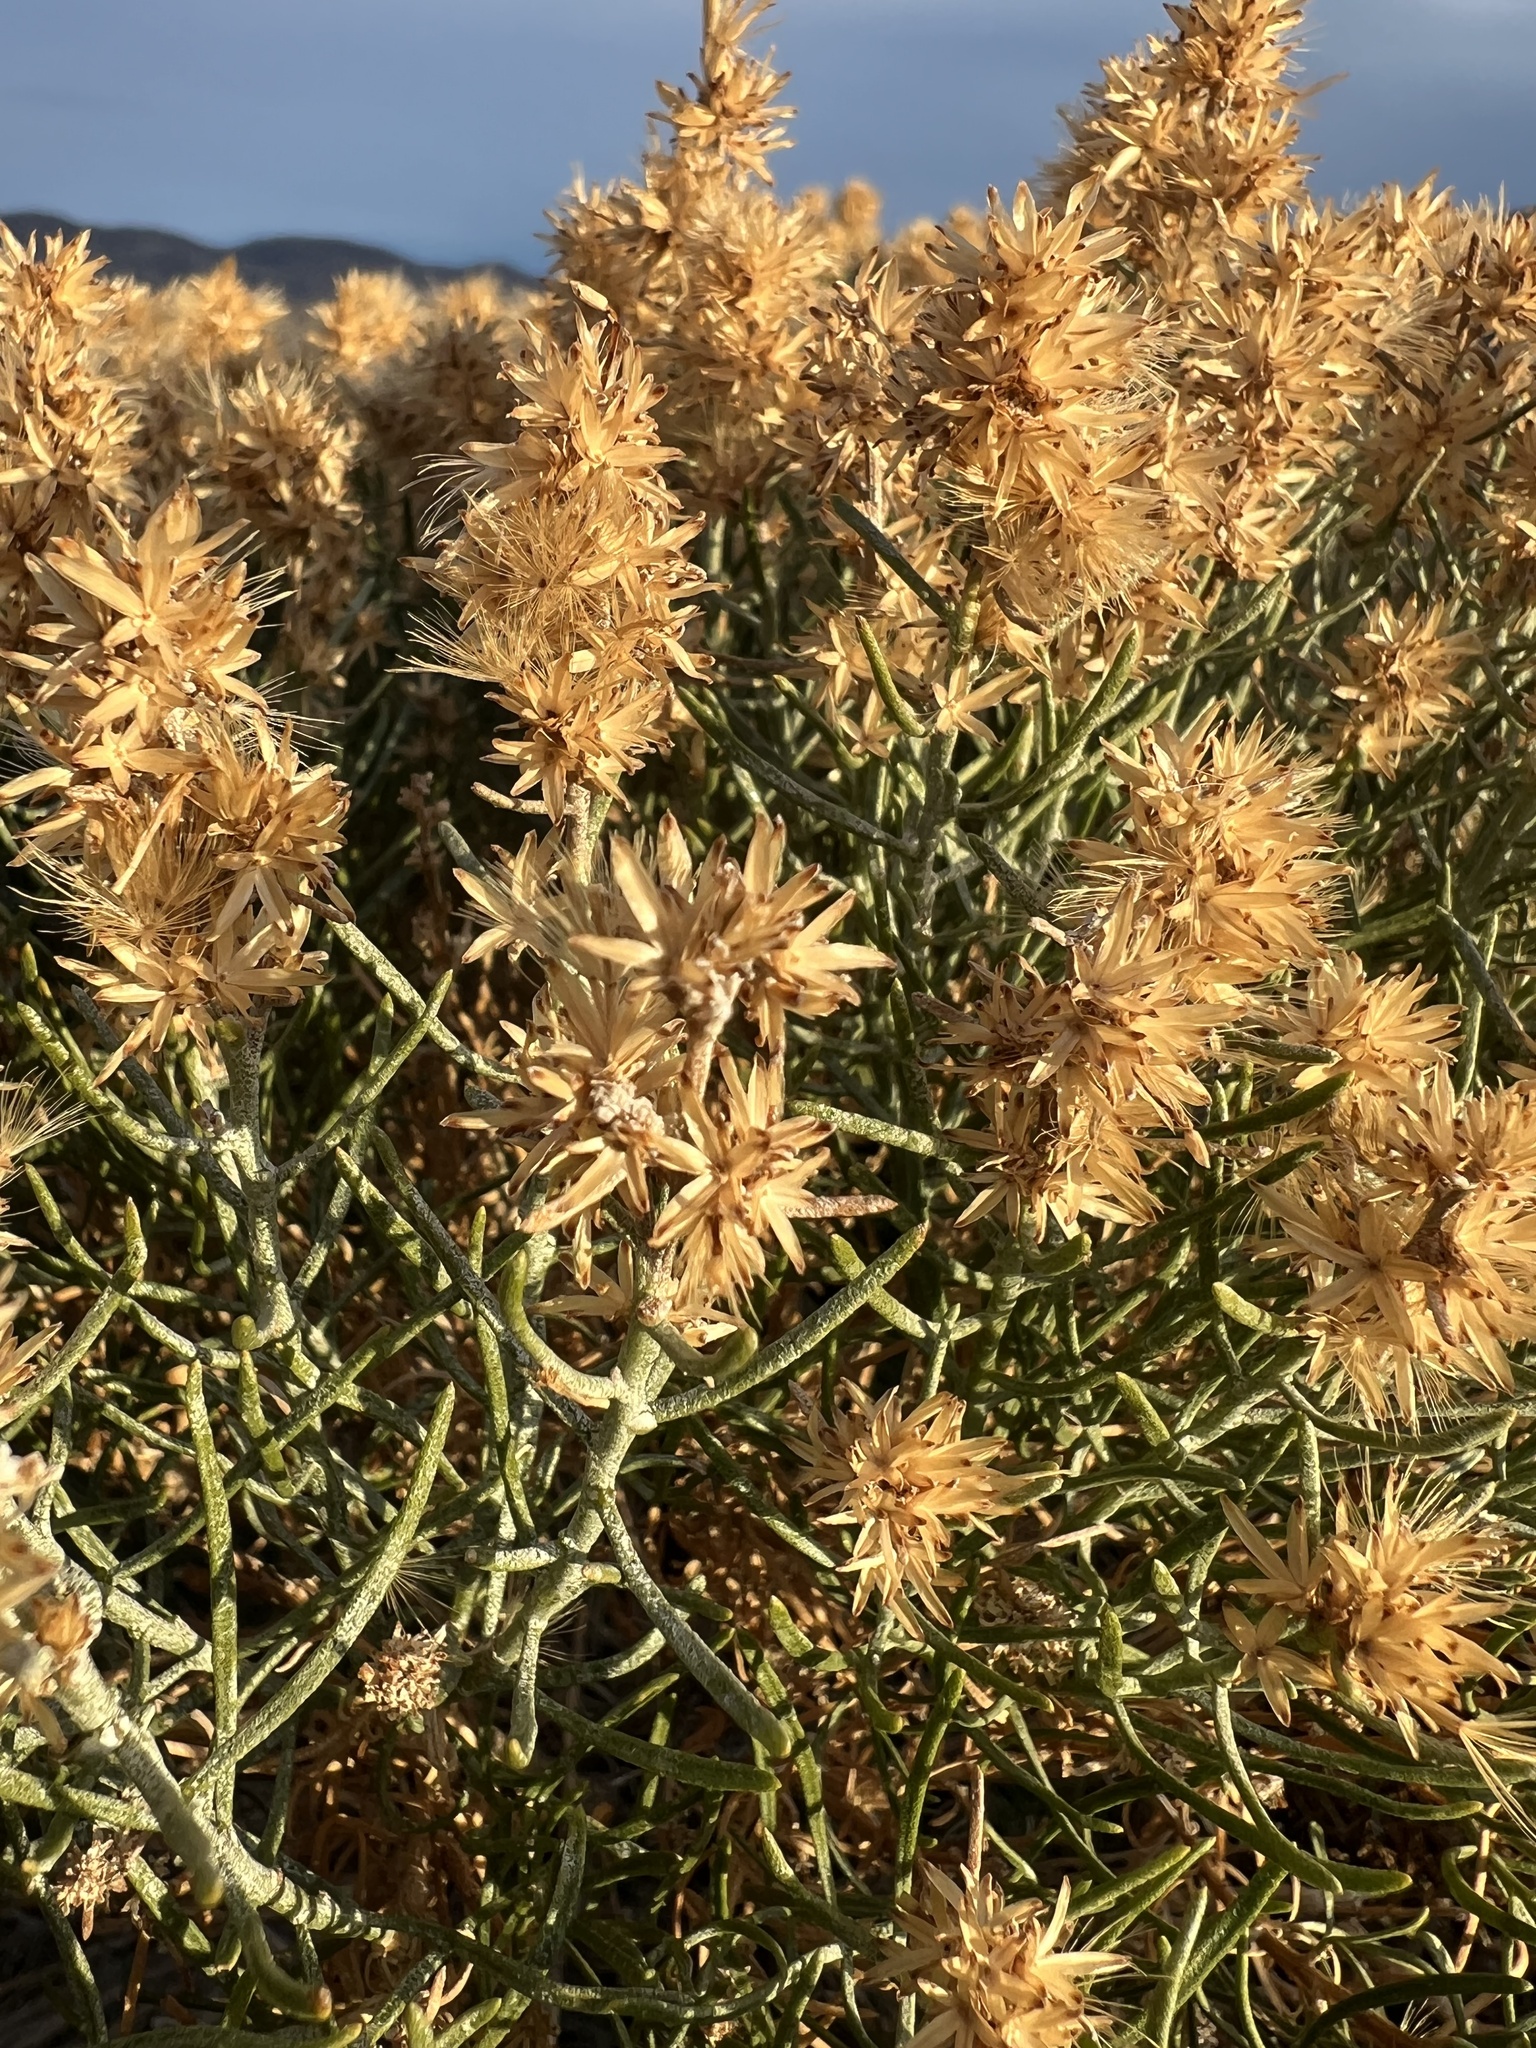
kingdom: Plantae
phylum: Tracheophyta
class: Magnoliopsida
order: Asterales
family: Asteraceae
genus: Ericameria
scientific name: Ericameria teretifolia
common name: Round-leaf rabbitbrush
